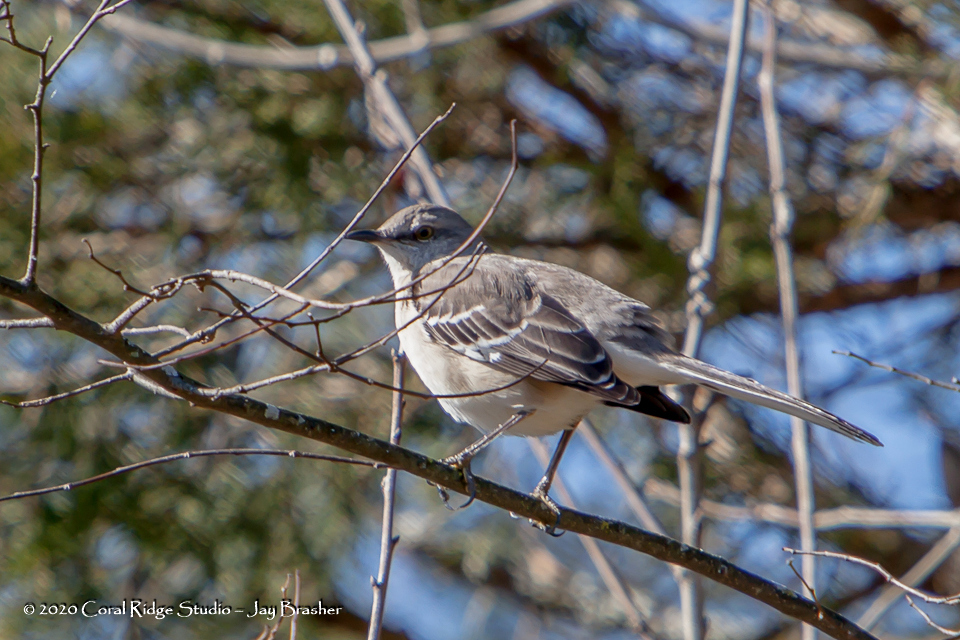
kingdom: Animalia
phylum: Chordata
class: Aves
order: Passeriformes
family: Mimidae
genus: Mimus
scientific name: Mimus polyglottos
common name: Northern mockingbird
